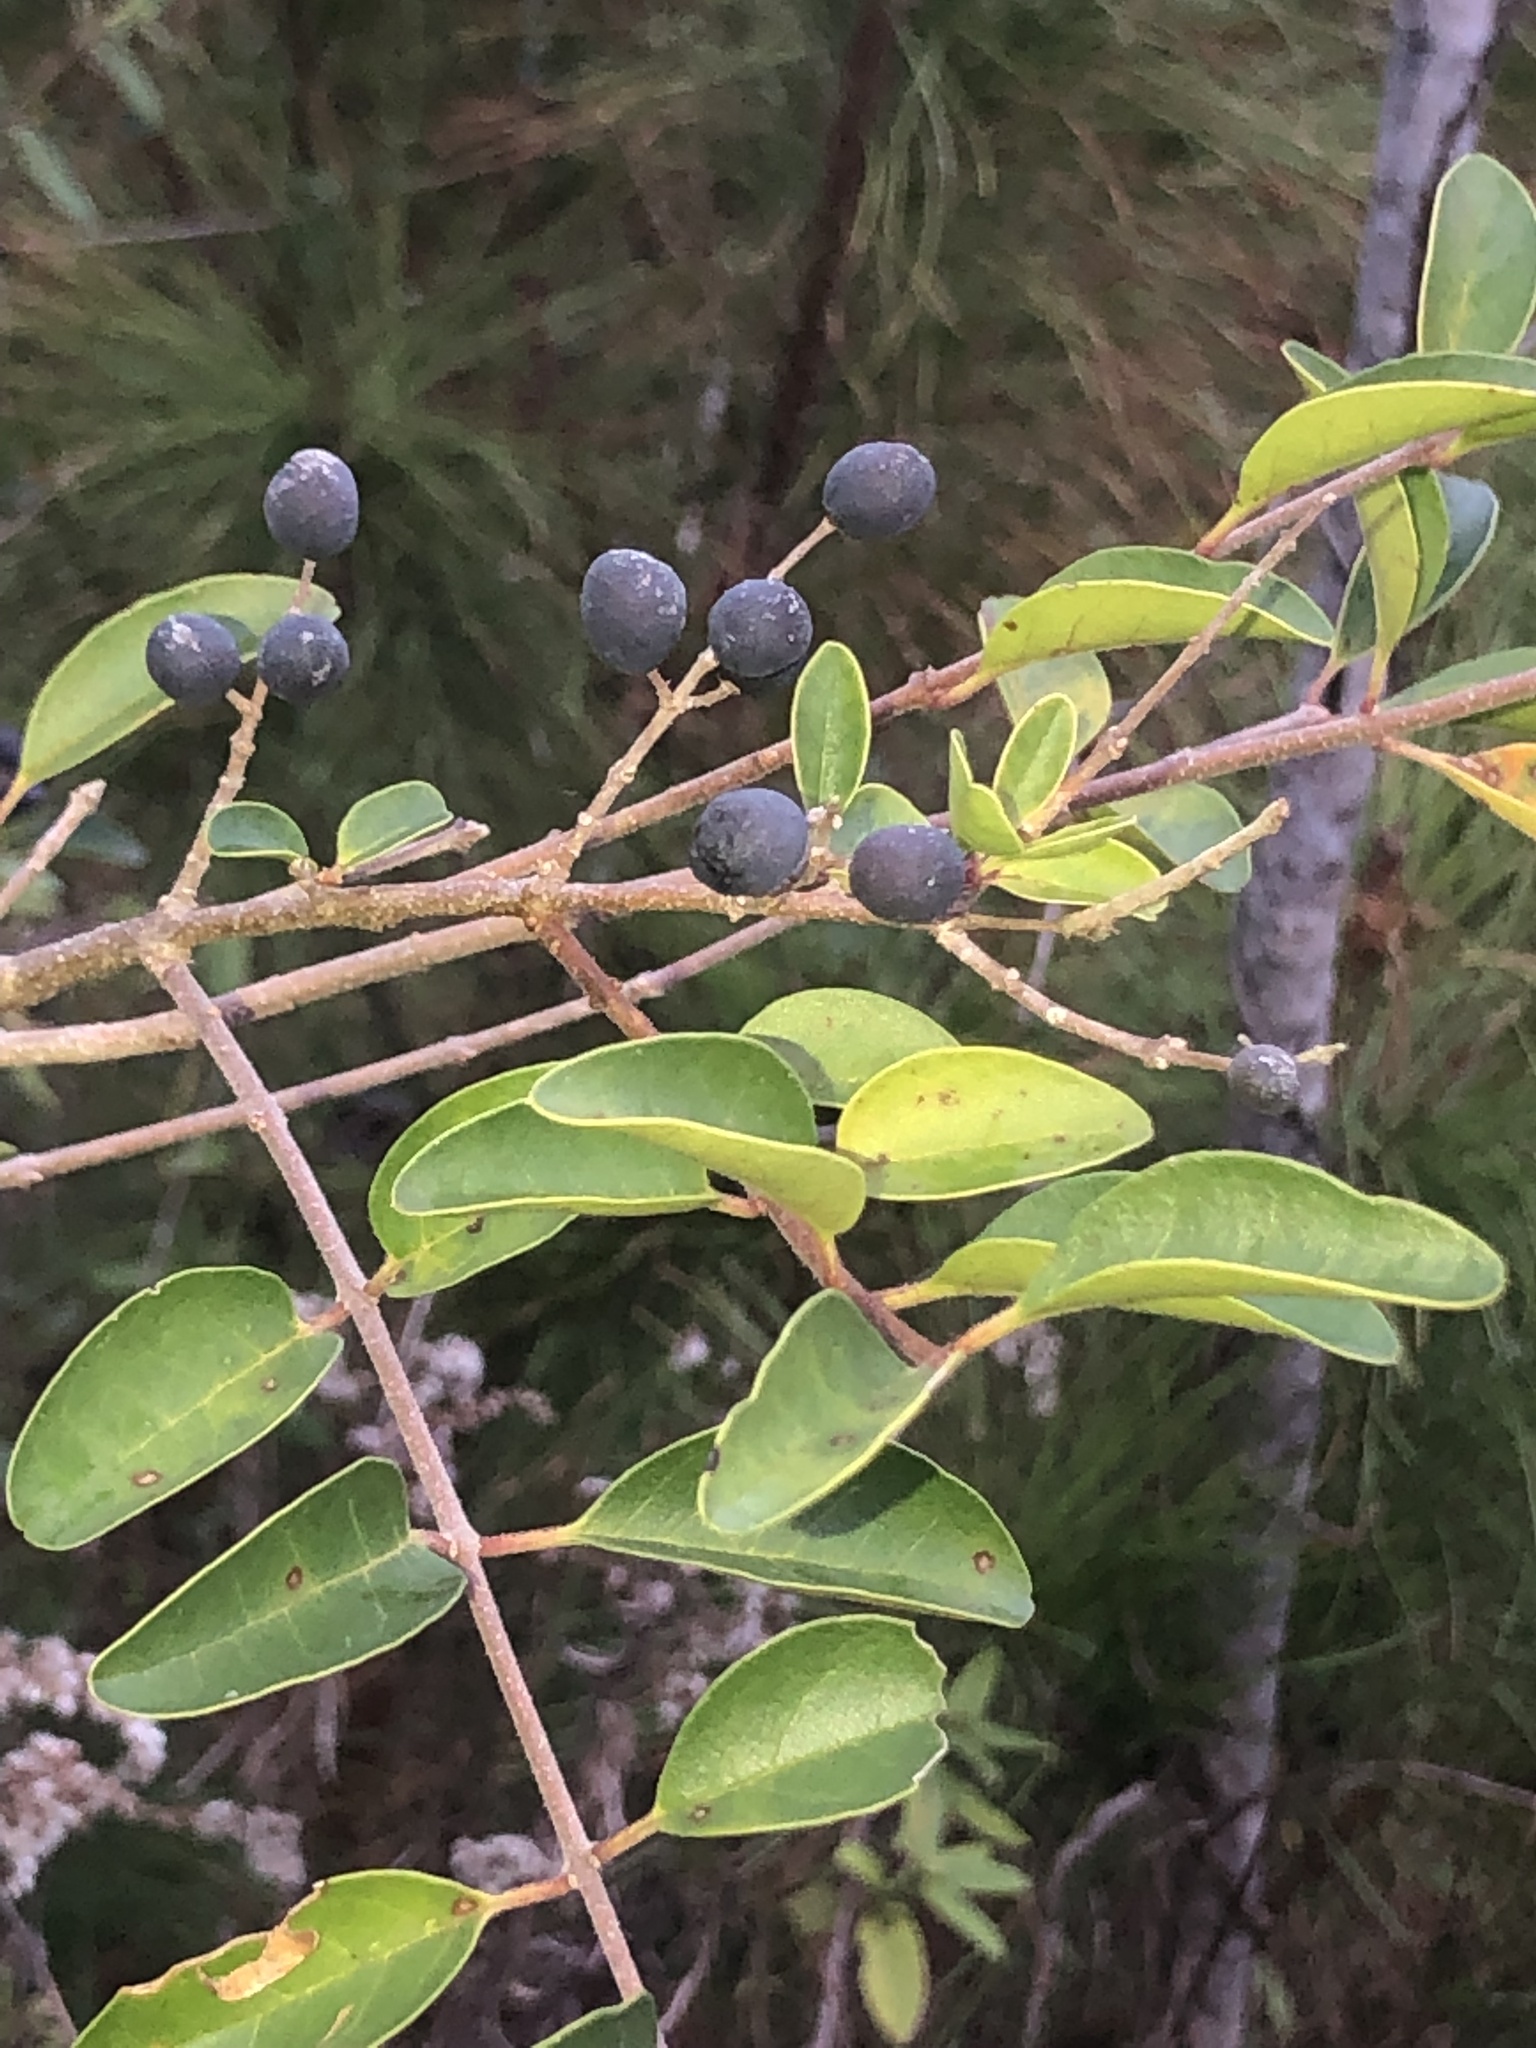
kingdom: Plantae
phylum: Tracheophyta
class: Magnoliopsida
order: Lamiales
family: Oleaceae
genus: Ligustrum
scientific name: Ligustrum sinense
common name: Chinese privet
